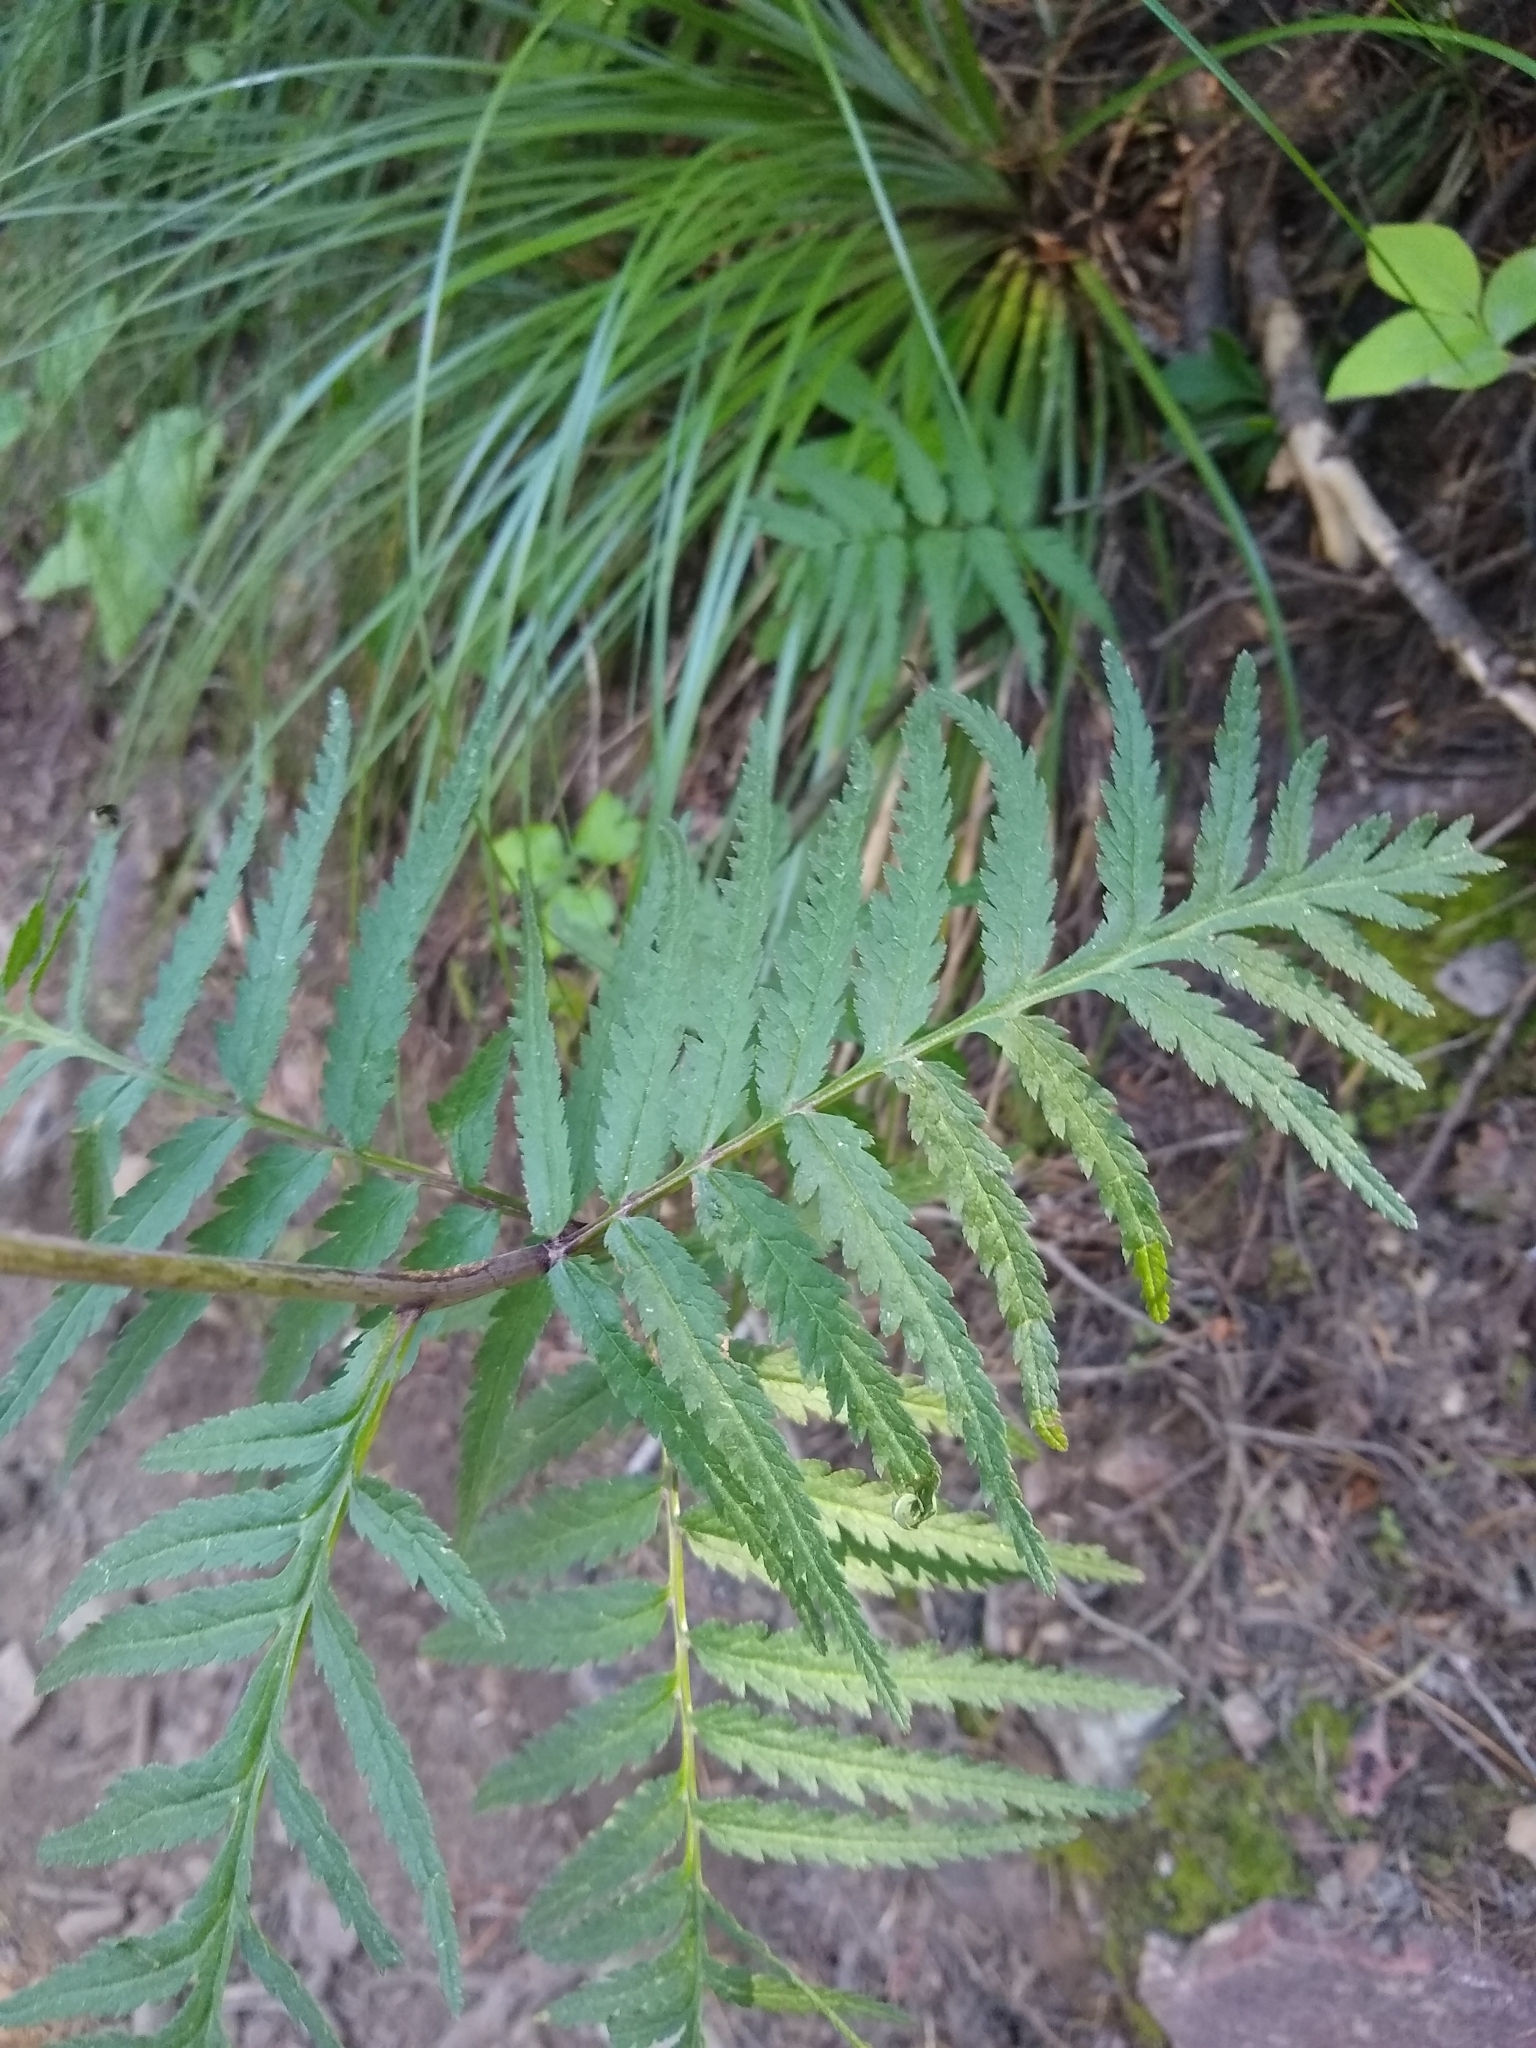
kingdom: Plantae
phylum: Tracheophyta
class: Magnoliopsida
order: Lamiales
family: Orobanchaceae
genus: Pedicularis
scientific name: Pedicularis bracteosa
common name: Bracted lousewort
